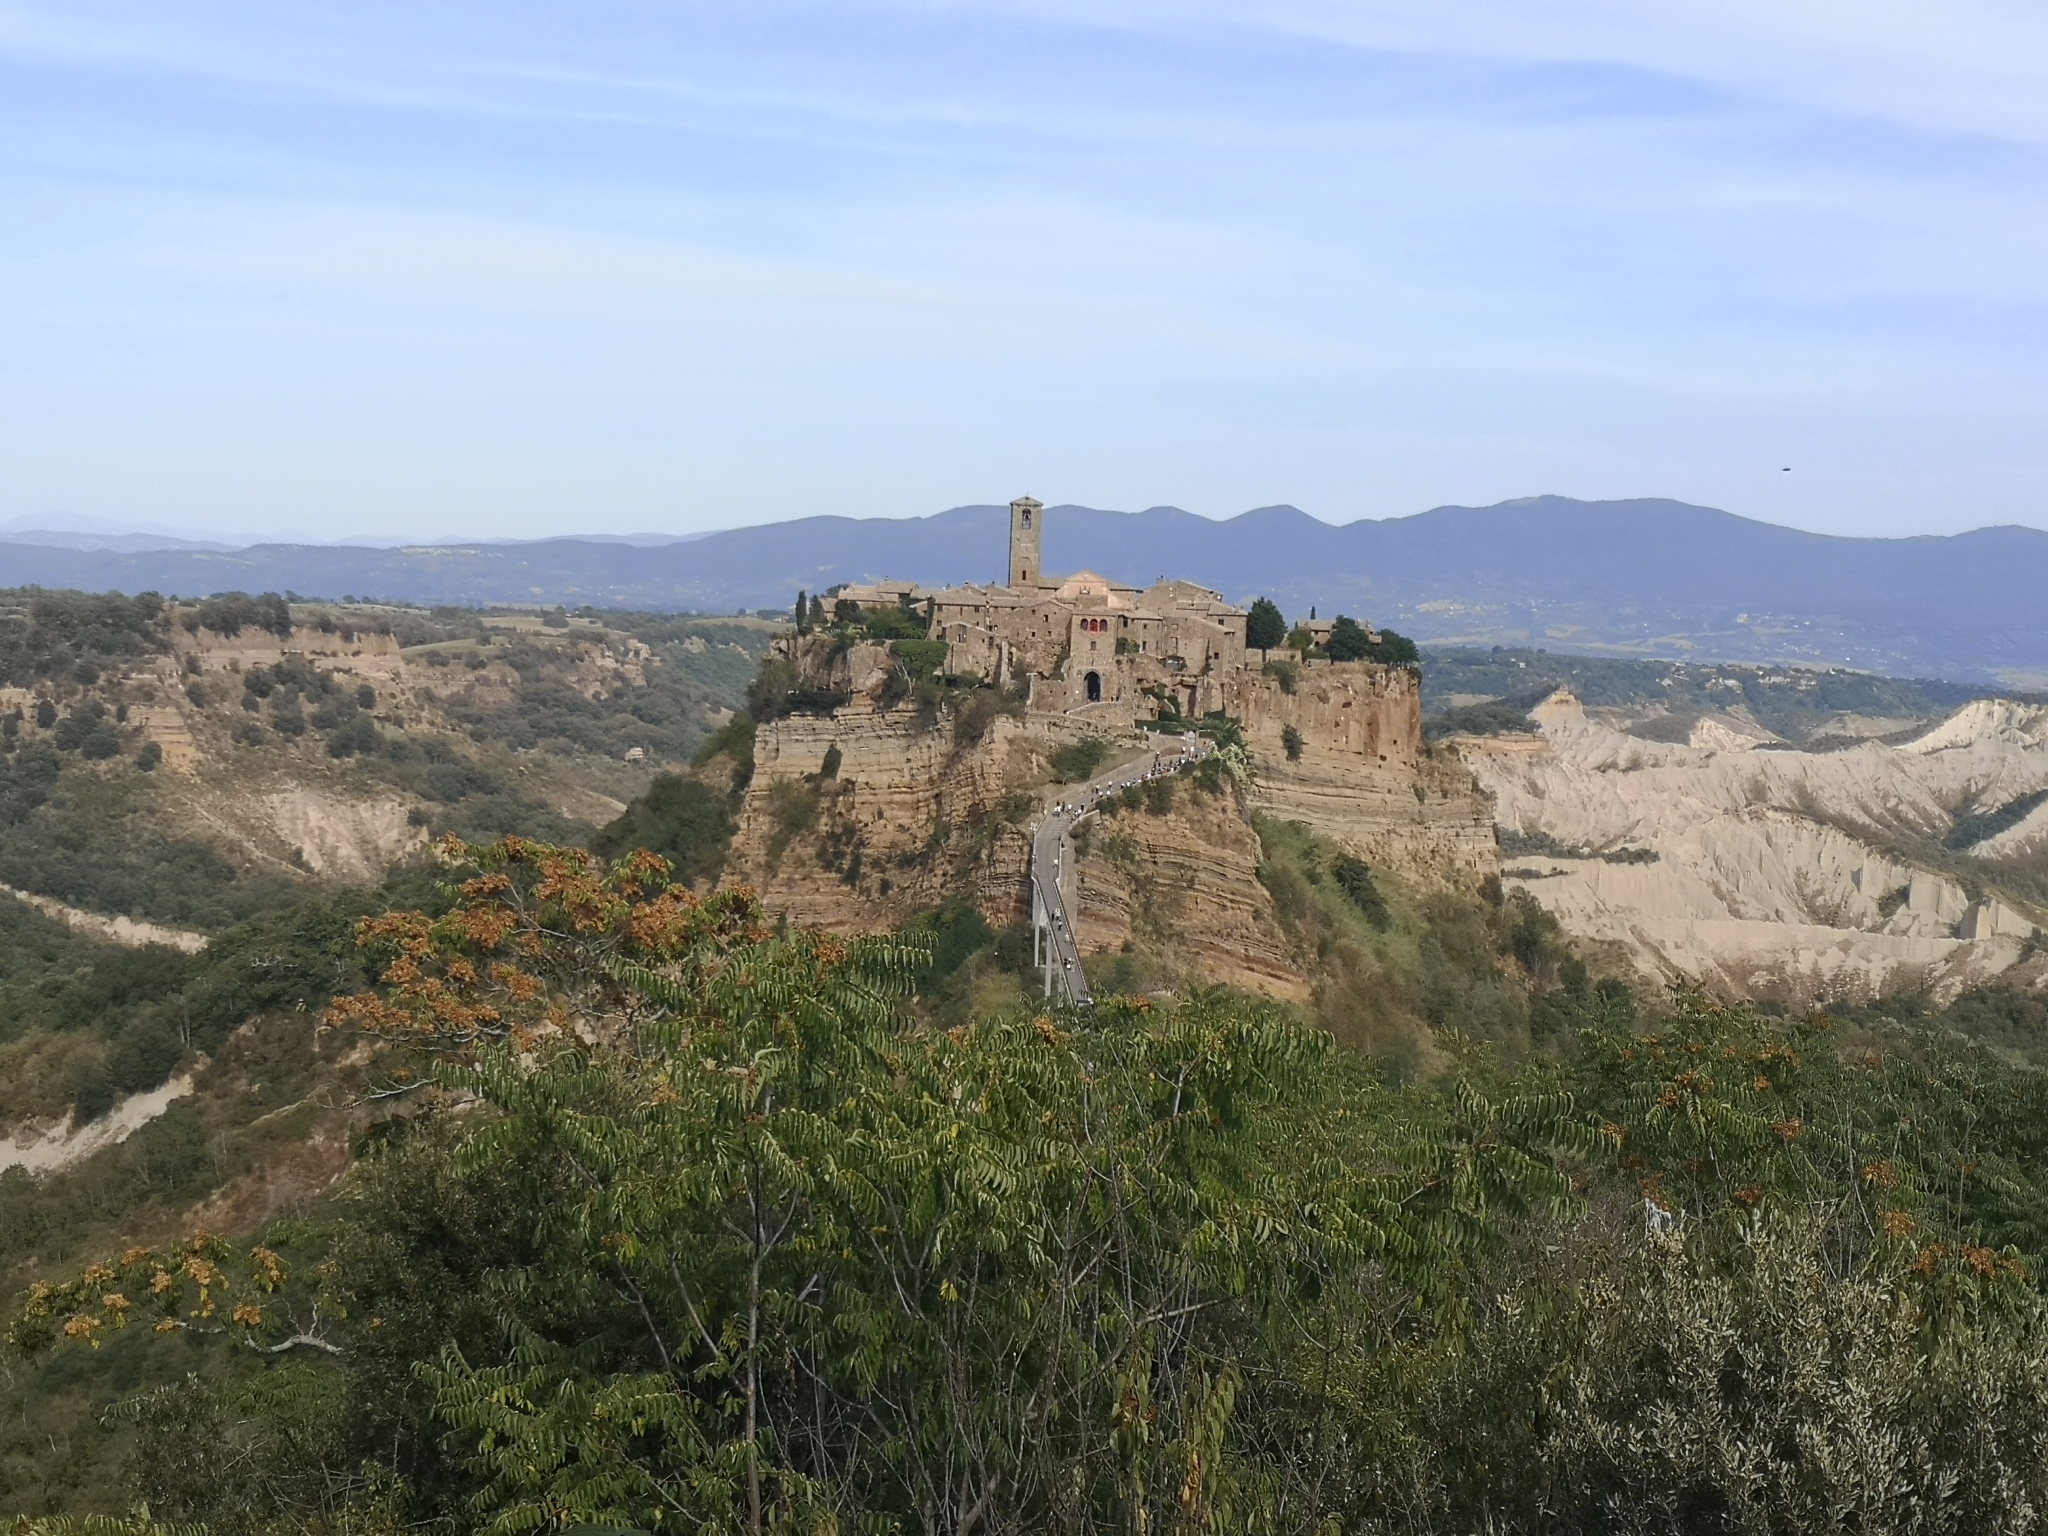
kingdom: Plantae
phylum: Tracheophyta
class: Magnoliopsida
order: Sapindales
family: Simaroubaceae
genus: Ailanthus
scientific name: Ailanthus altissima
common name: Tree-of-heaven
